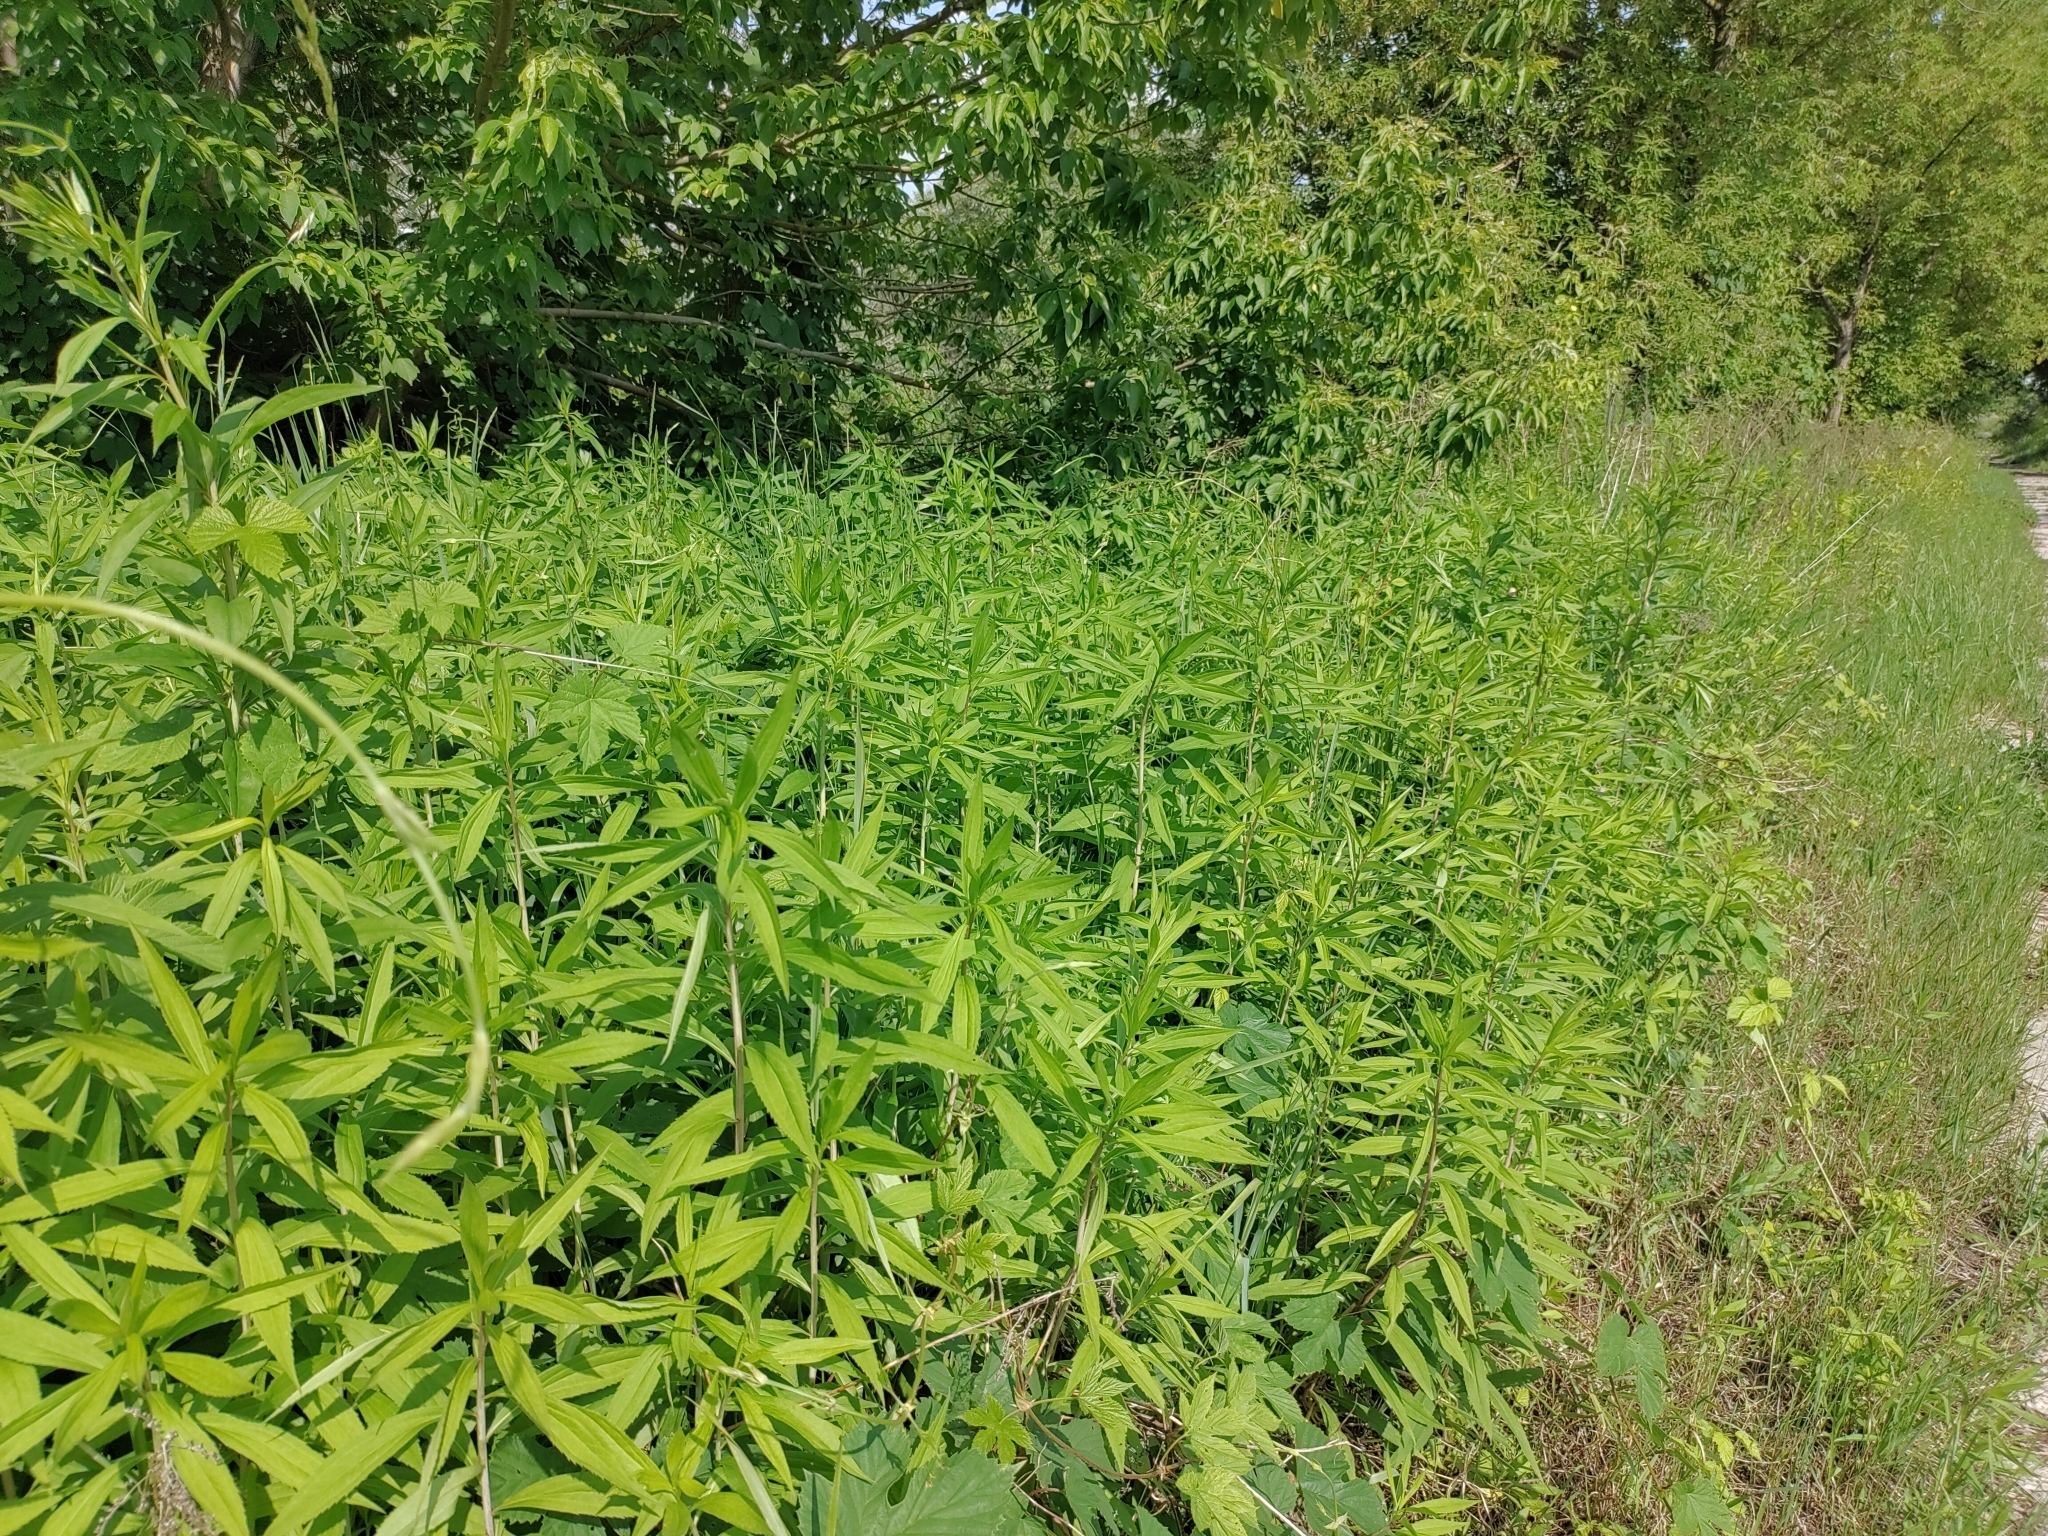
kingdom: Plantae
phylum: Tracheophyta
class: Magnoliopsida
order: Asterales
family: Asteraceae
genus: Solidago
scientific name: Solidago gigantea
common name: Giant goldenrod
